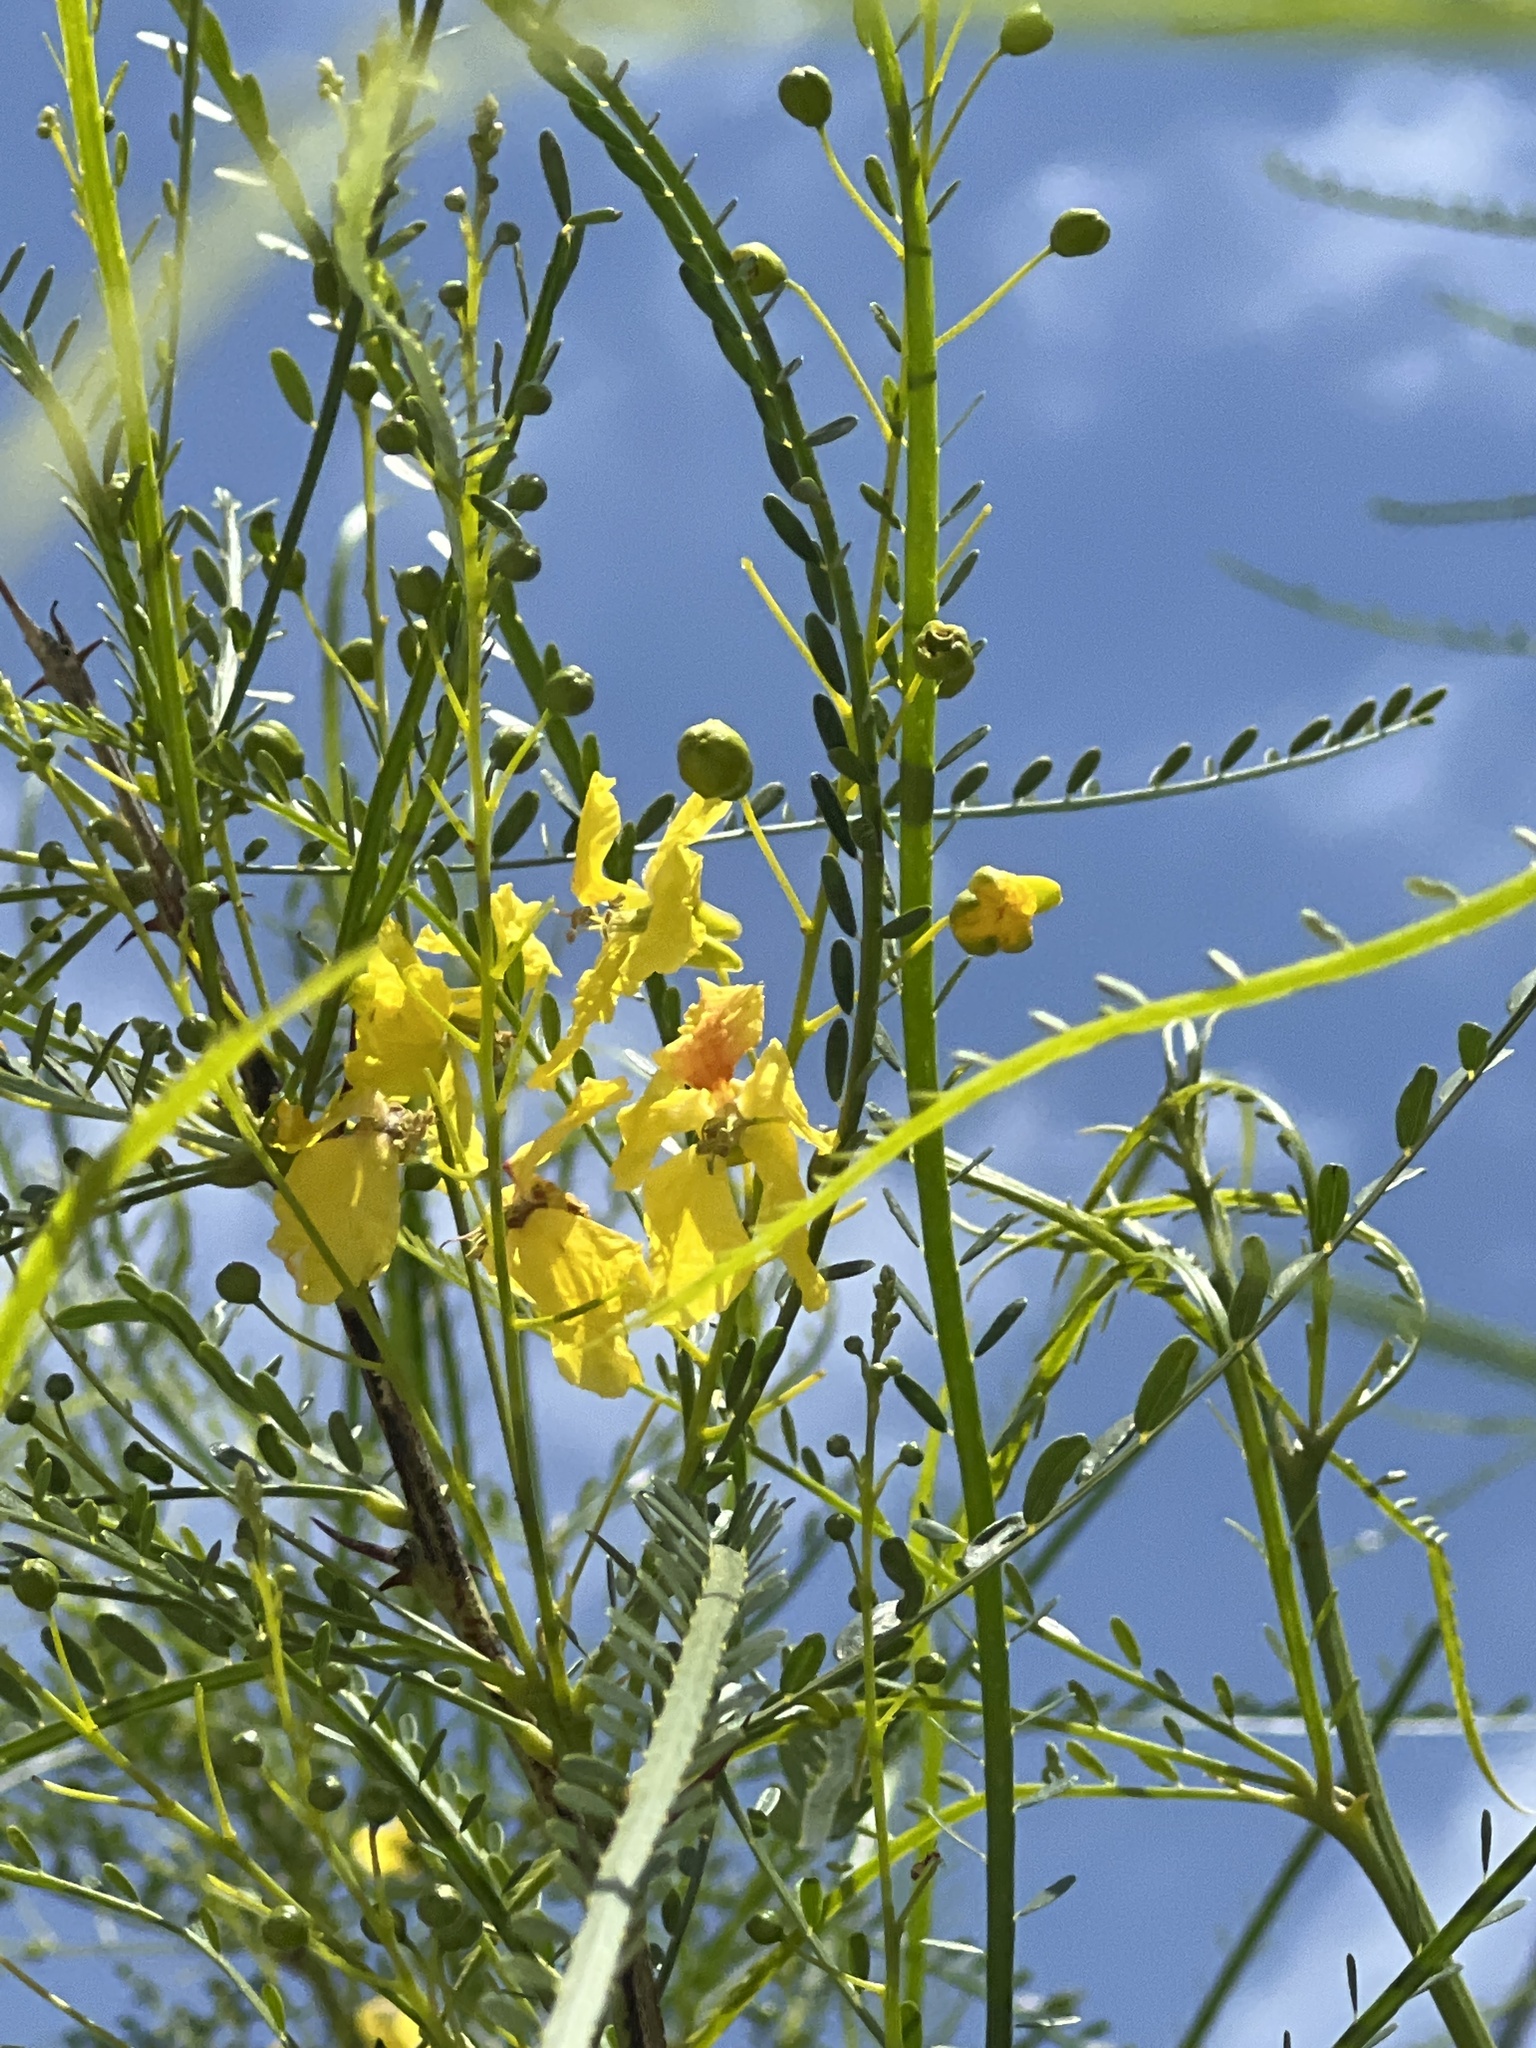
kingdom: Plantae
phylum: Tracheophyta
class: Magnoliopsida
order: Fabales
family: Fabaceae
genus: Parkinsonia
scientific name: Parkinsonia aculeata
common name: Jerusalem thorn
